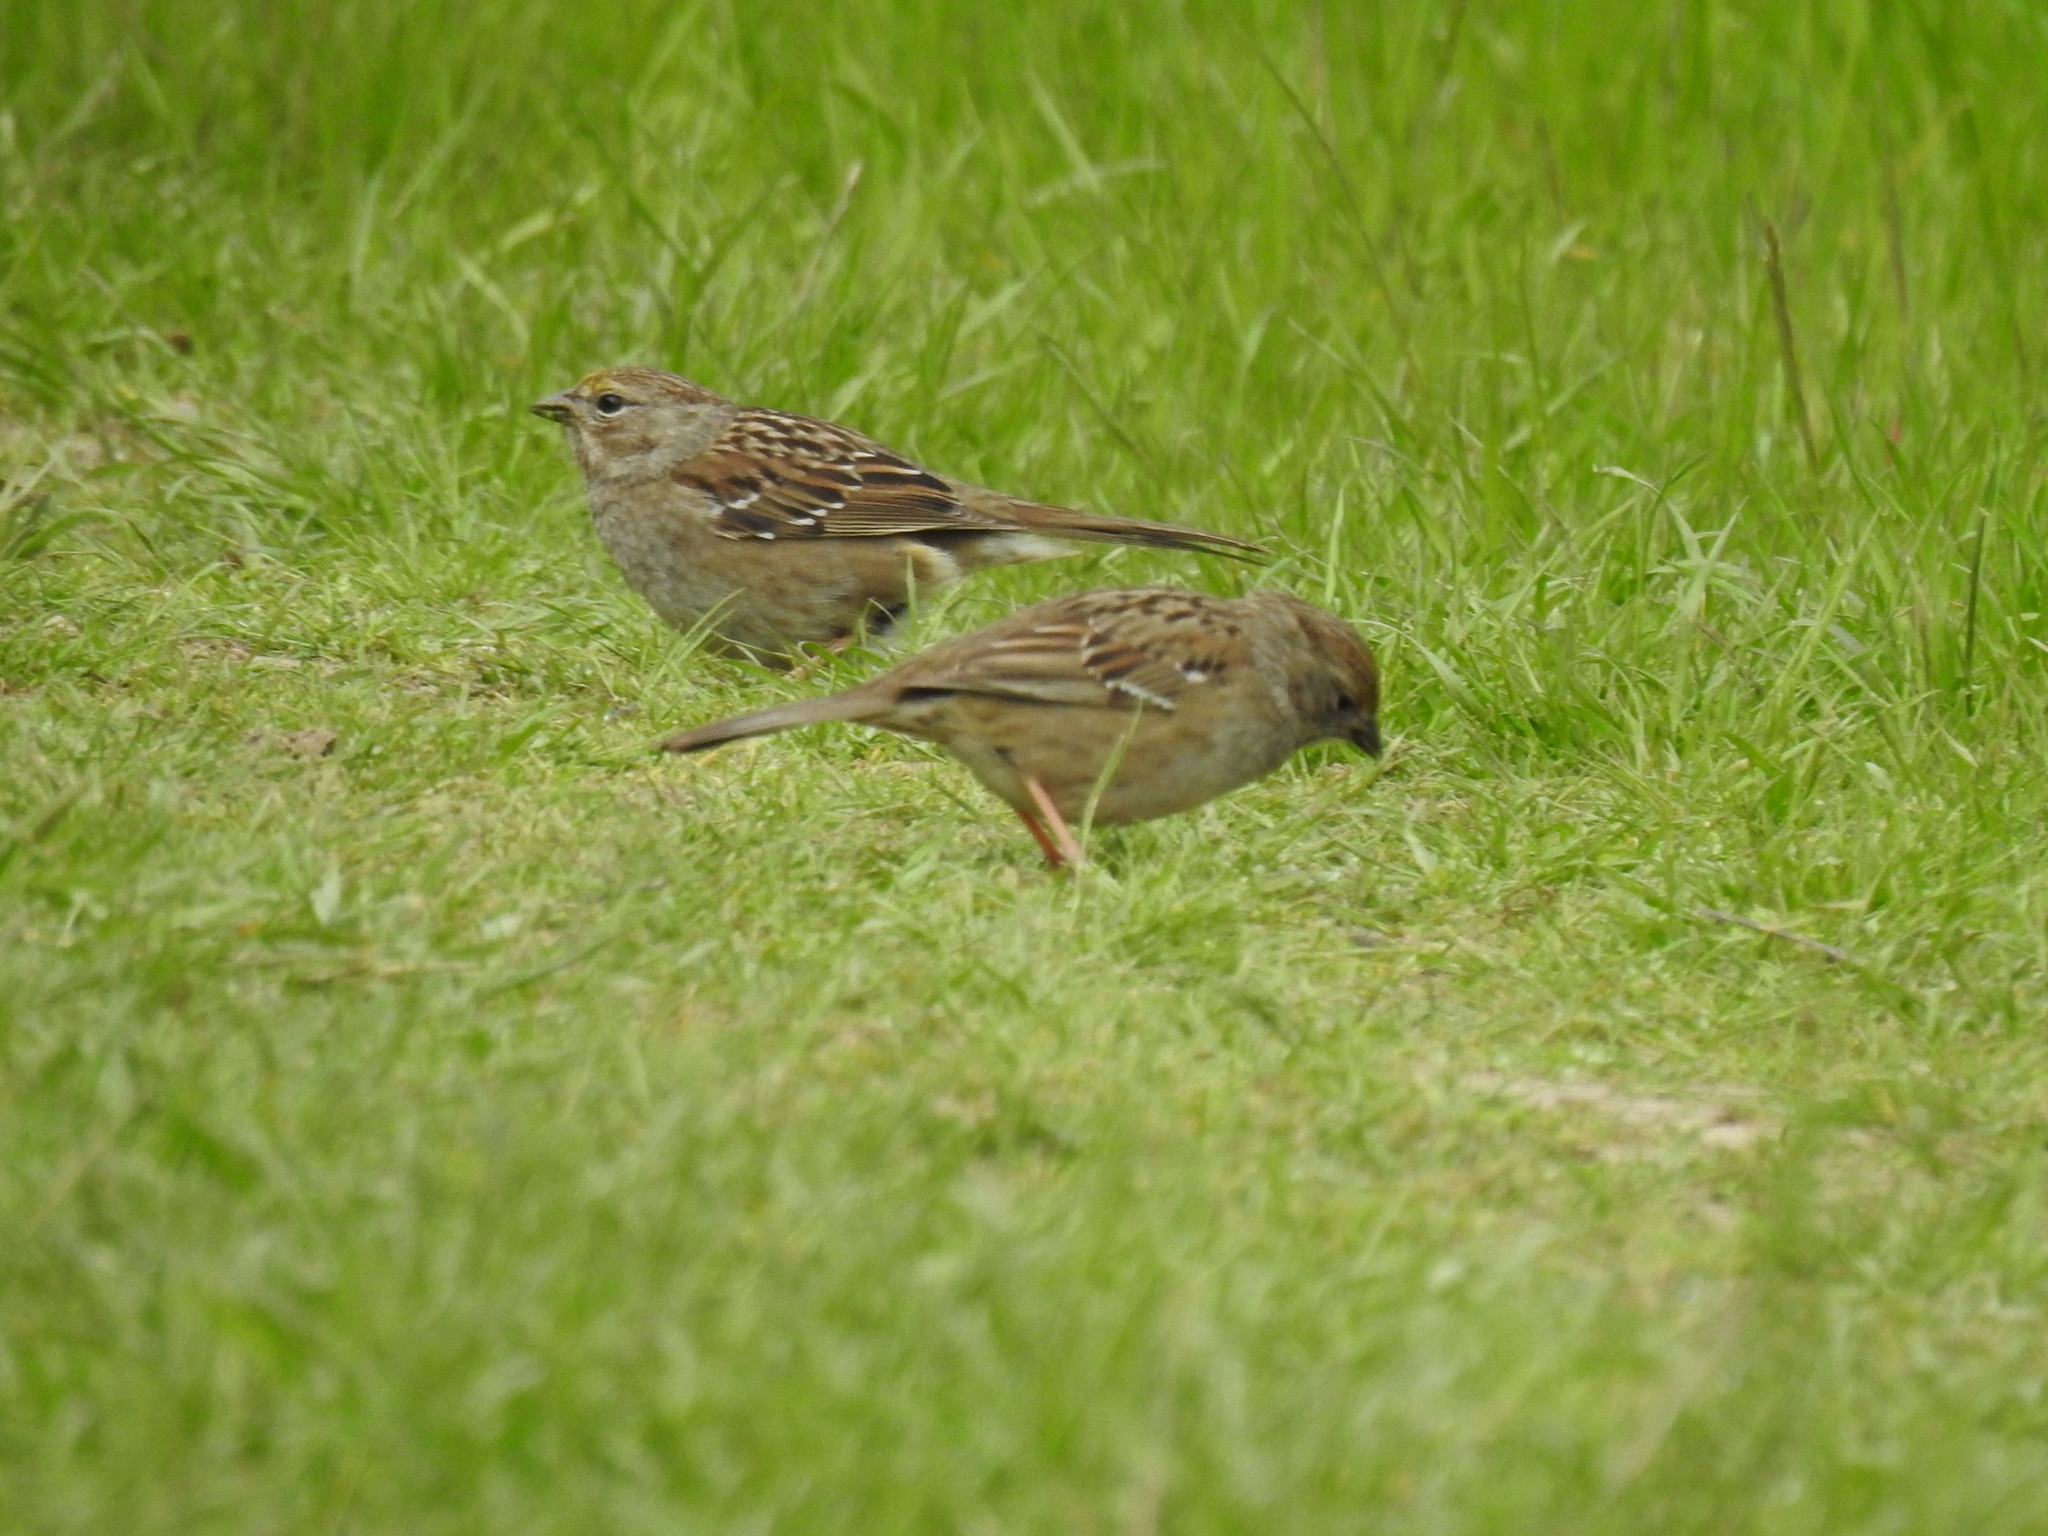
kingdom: Animalia
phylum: Chordata
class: Aves
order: Passeriformes
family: Passerellidae
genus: Zonotrichia
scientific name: Zonotrichia atricapilla
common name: Golden-crowned sparrow
